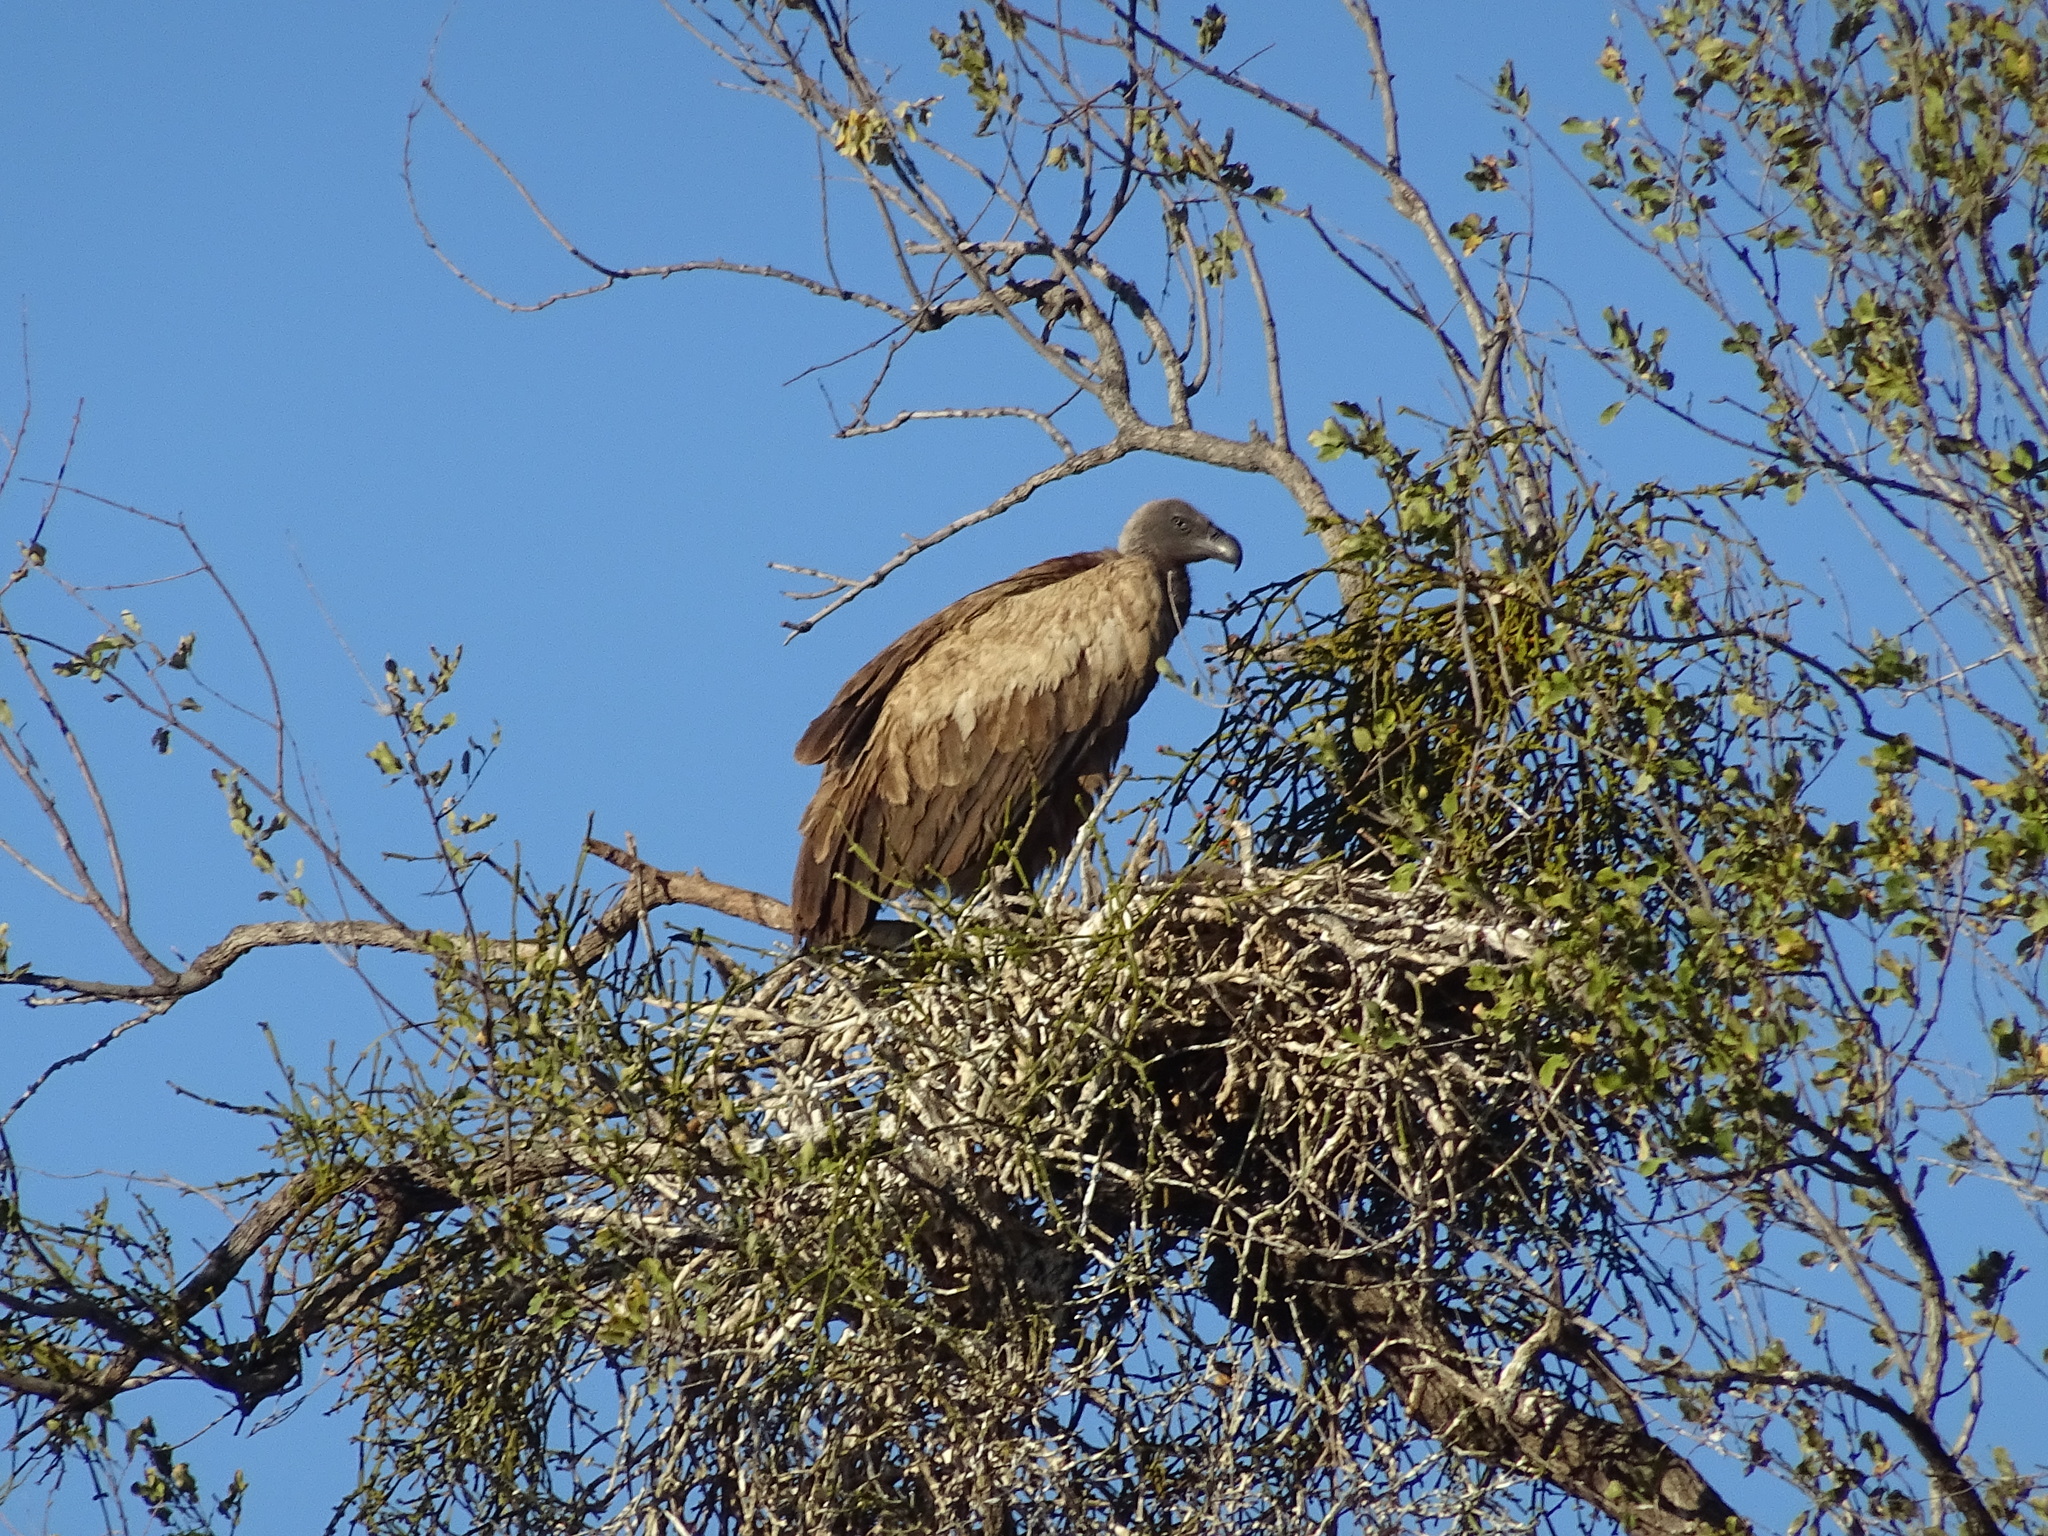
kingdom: Animalia
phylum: Chordata
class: Aves
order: Accipitriformes
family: Accipitridae
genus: Gyps
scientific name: Gyps africanus
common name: White-backed vulture
